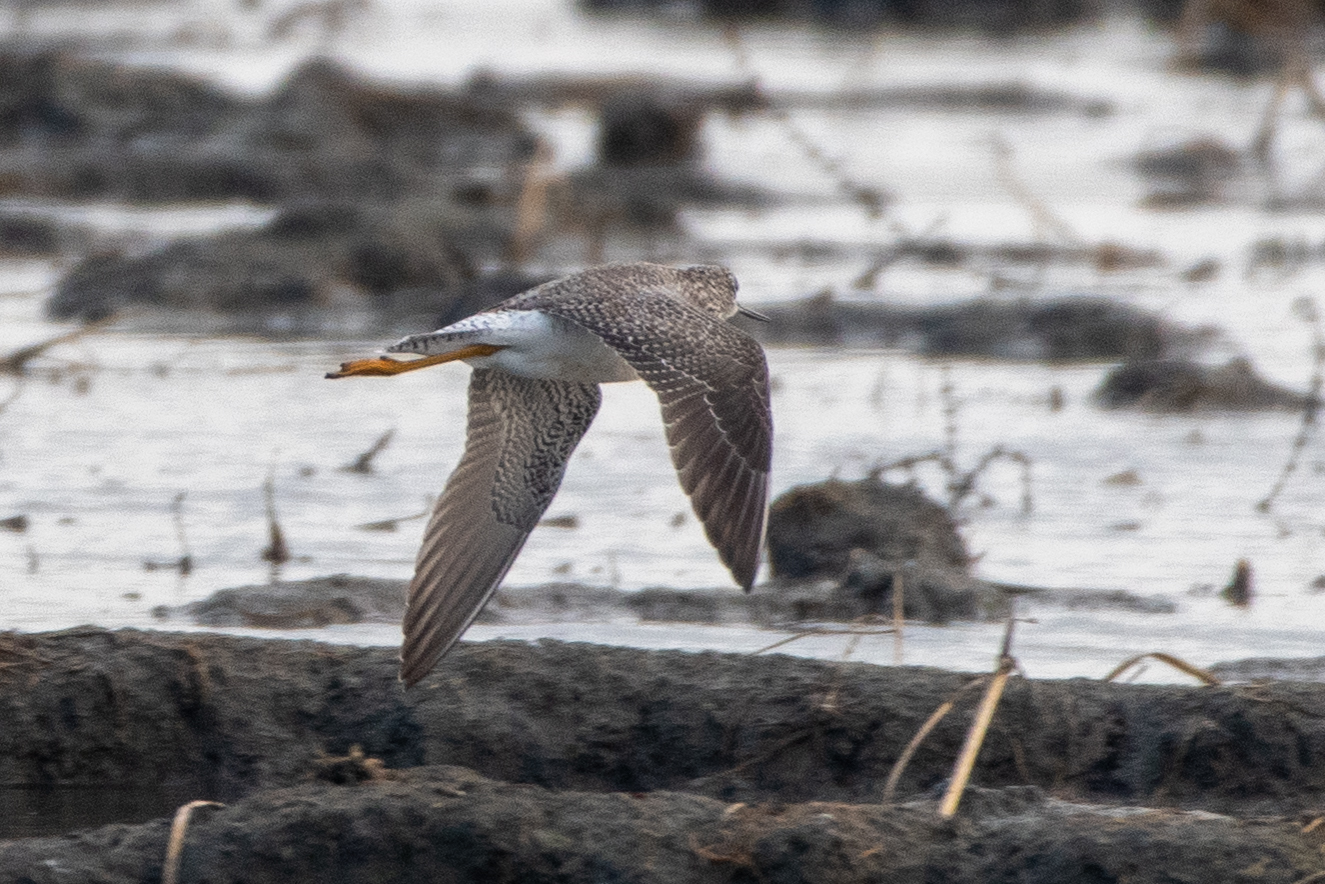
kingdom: Animalia
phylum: Chordata
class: Aves
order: Charadriiformes
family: Scolopacidae
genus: Tringa
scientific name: Tringa melanoleuca
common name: Greater yellowlegs
